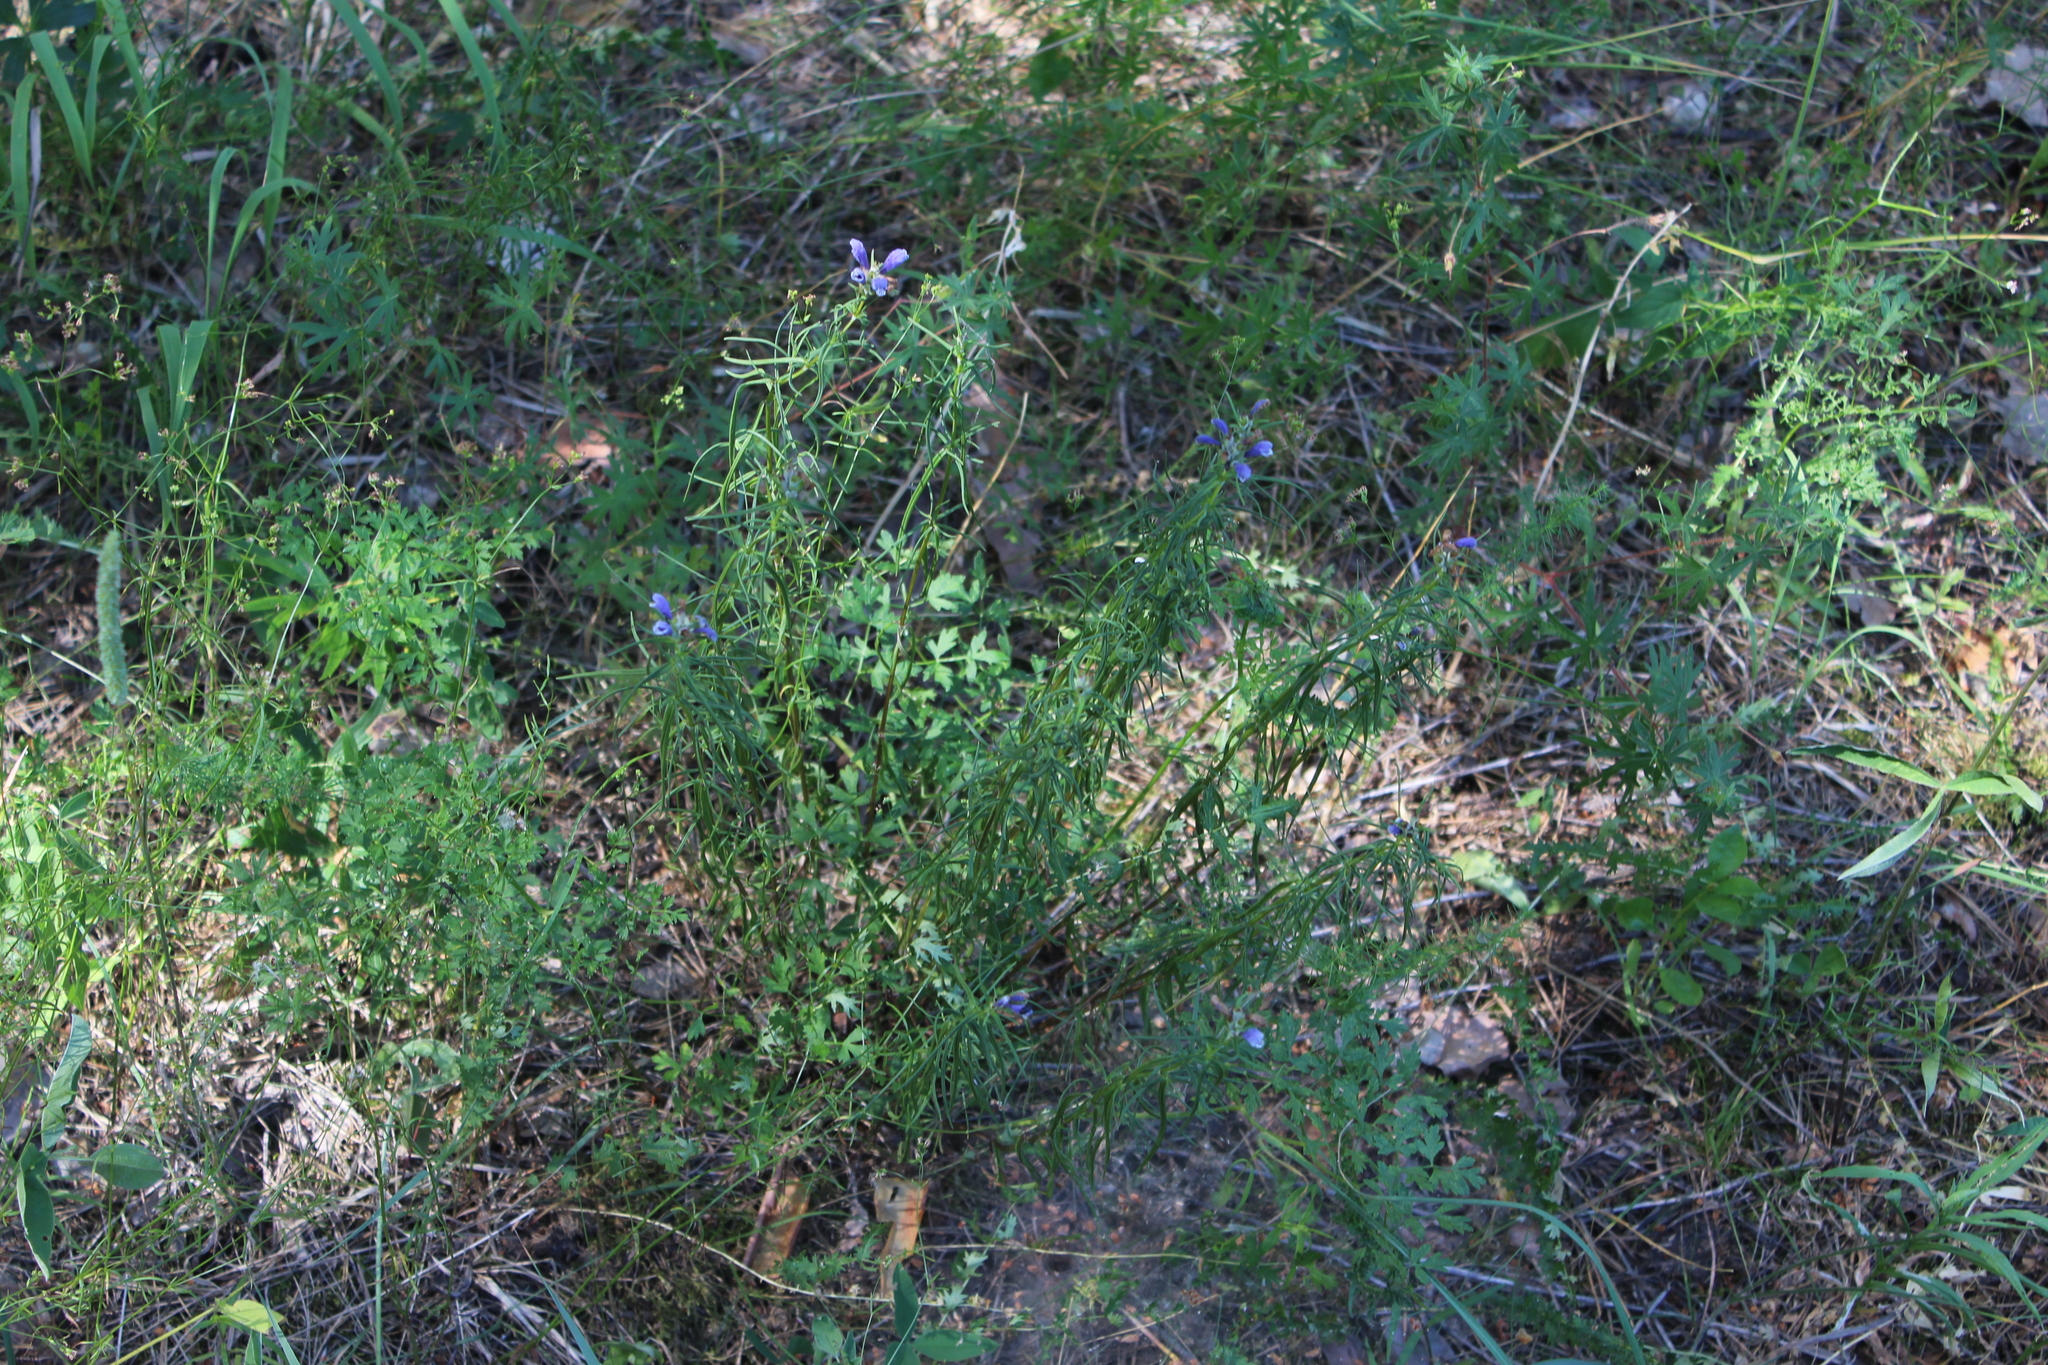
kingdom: Plantae
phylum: Tracheophyta
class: Magnoliopsida
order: Lamiales
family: Lamiaceae
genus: Dracocephalum
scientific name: Dracocephalum ruyschiana
